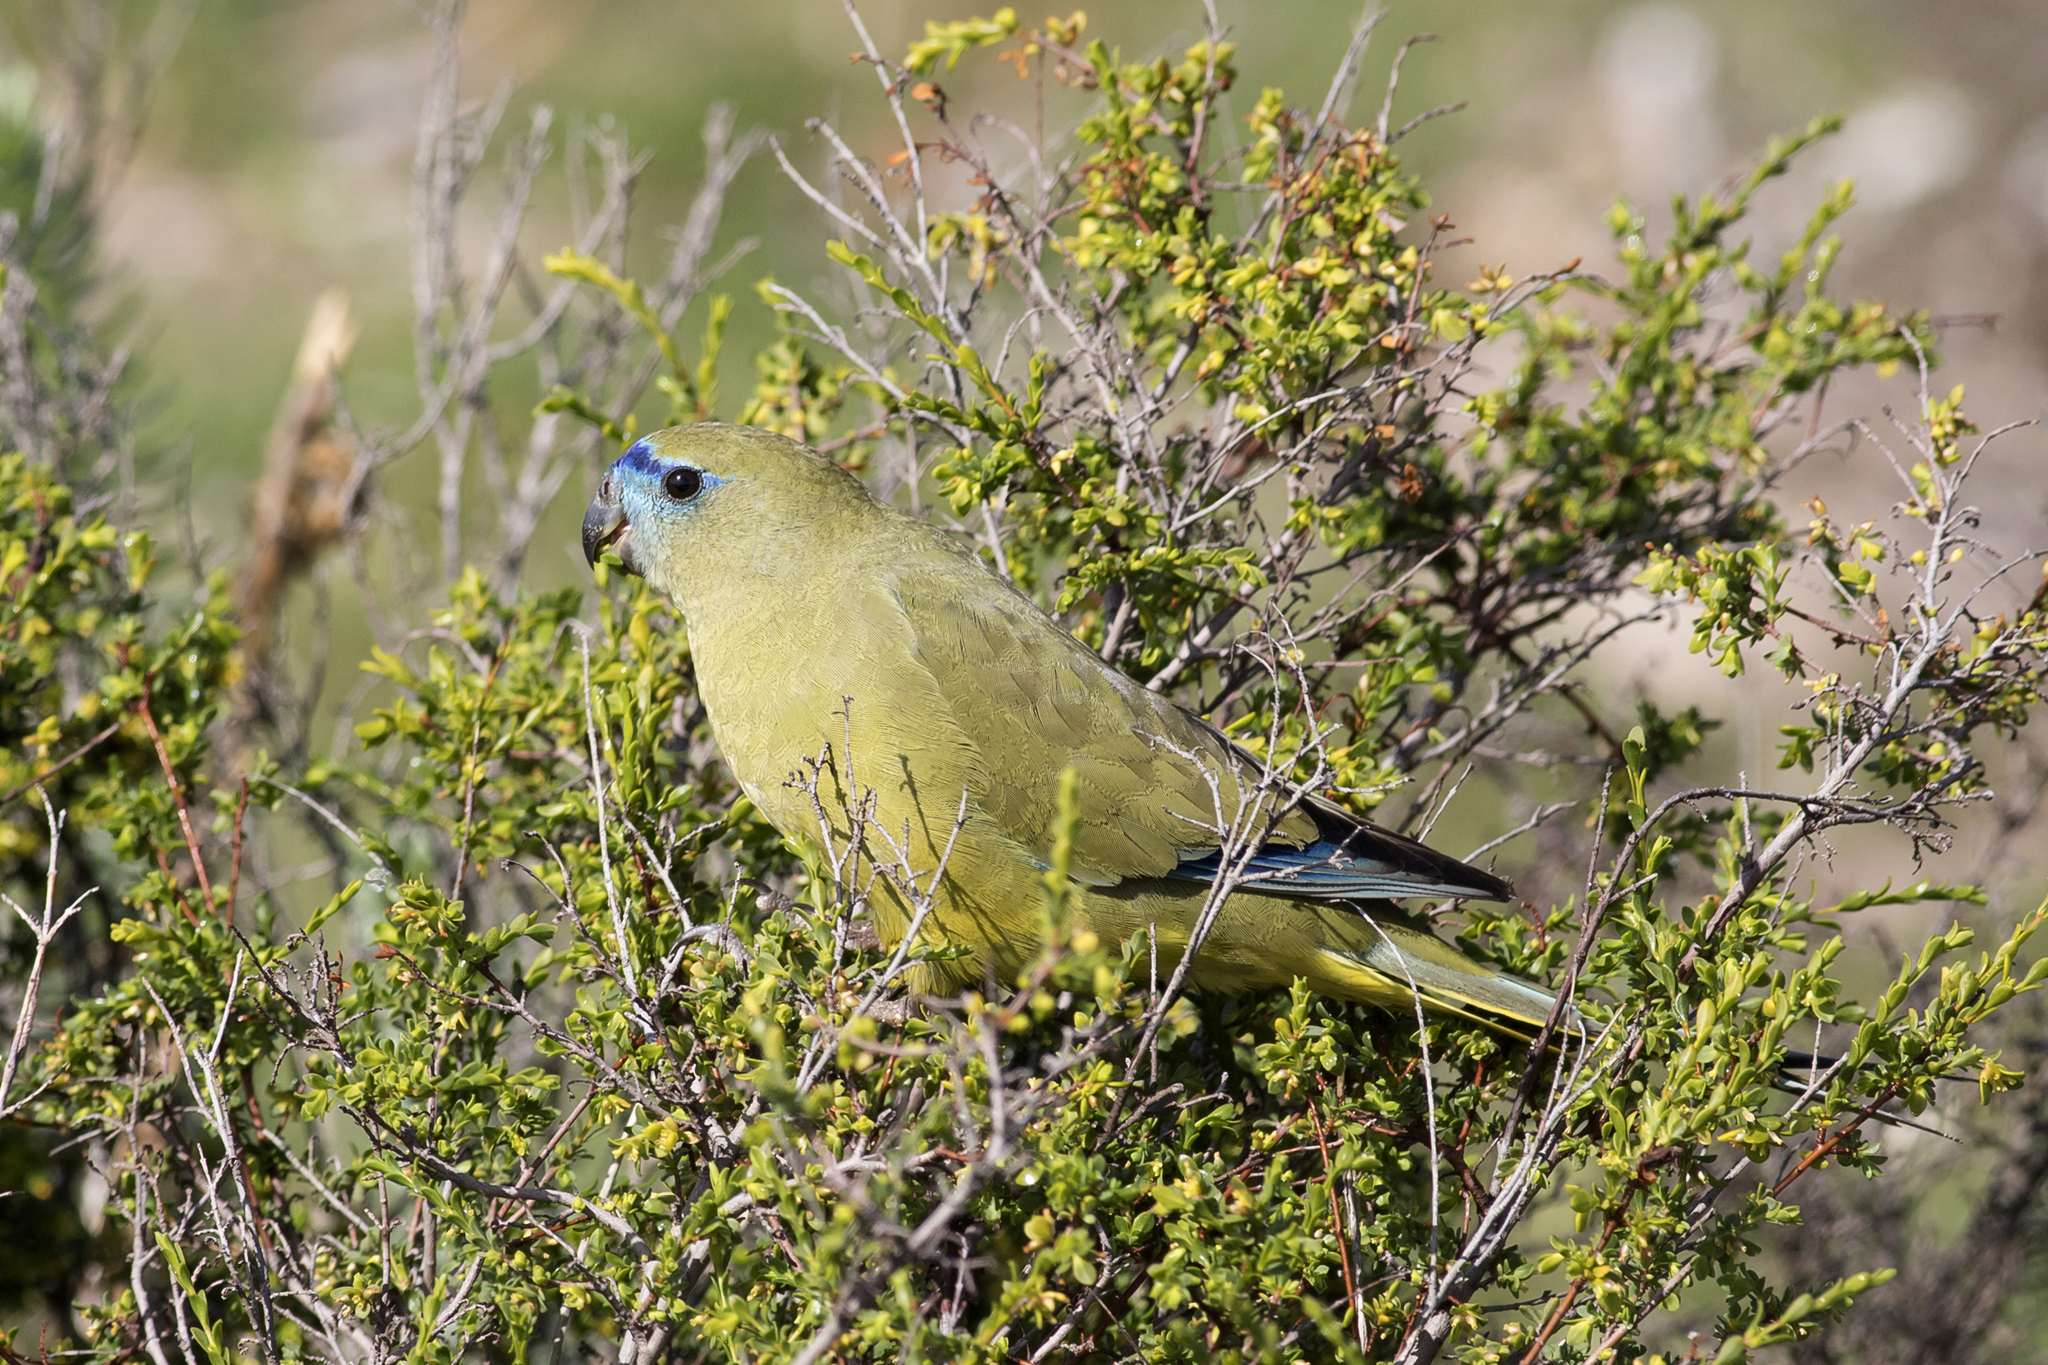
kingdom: Animalia
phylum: Chordata
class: Aves
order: Psittaciformes
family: Psittacidae
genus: Neophema
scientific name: Neophema petrophila
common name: Rock parrot
